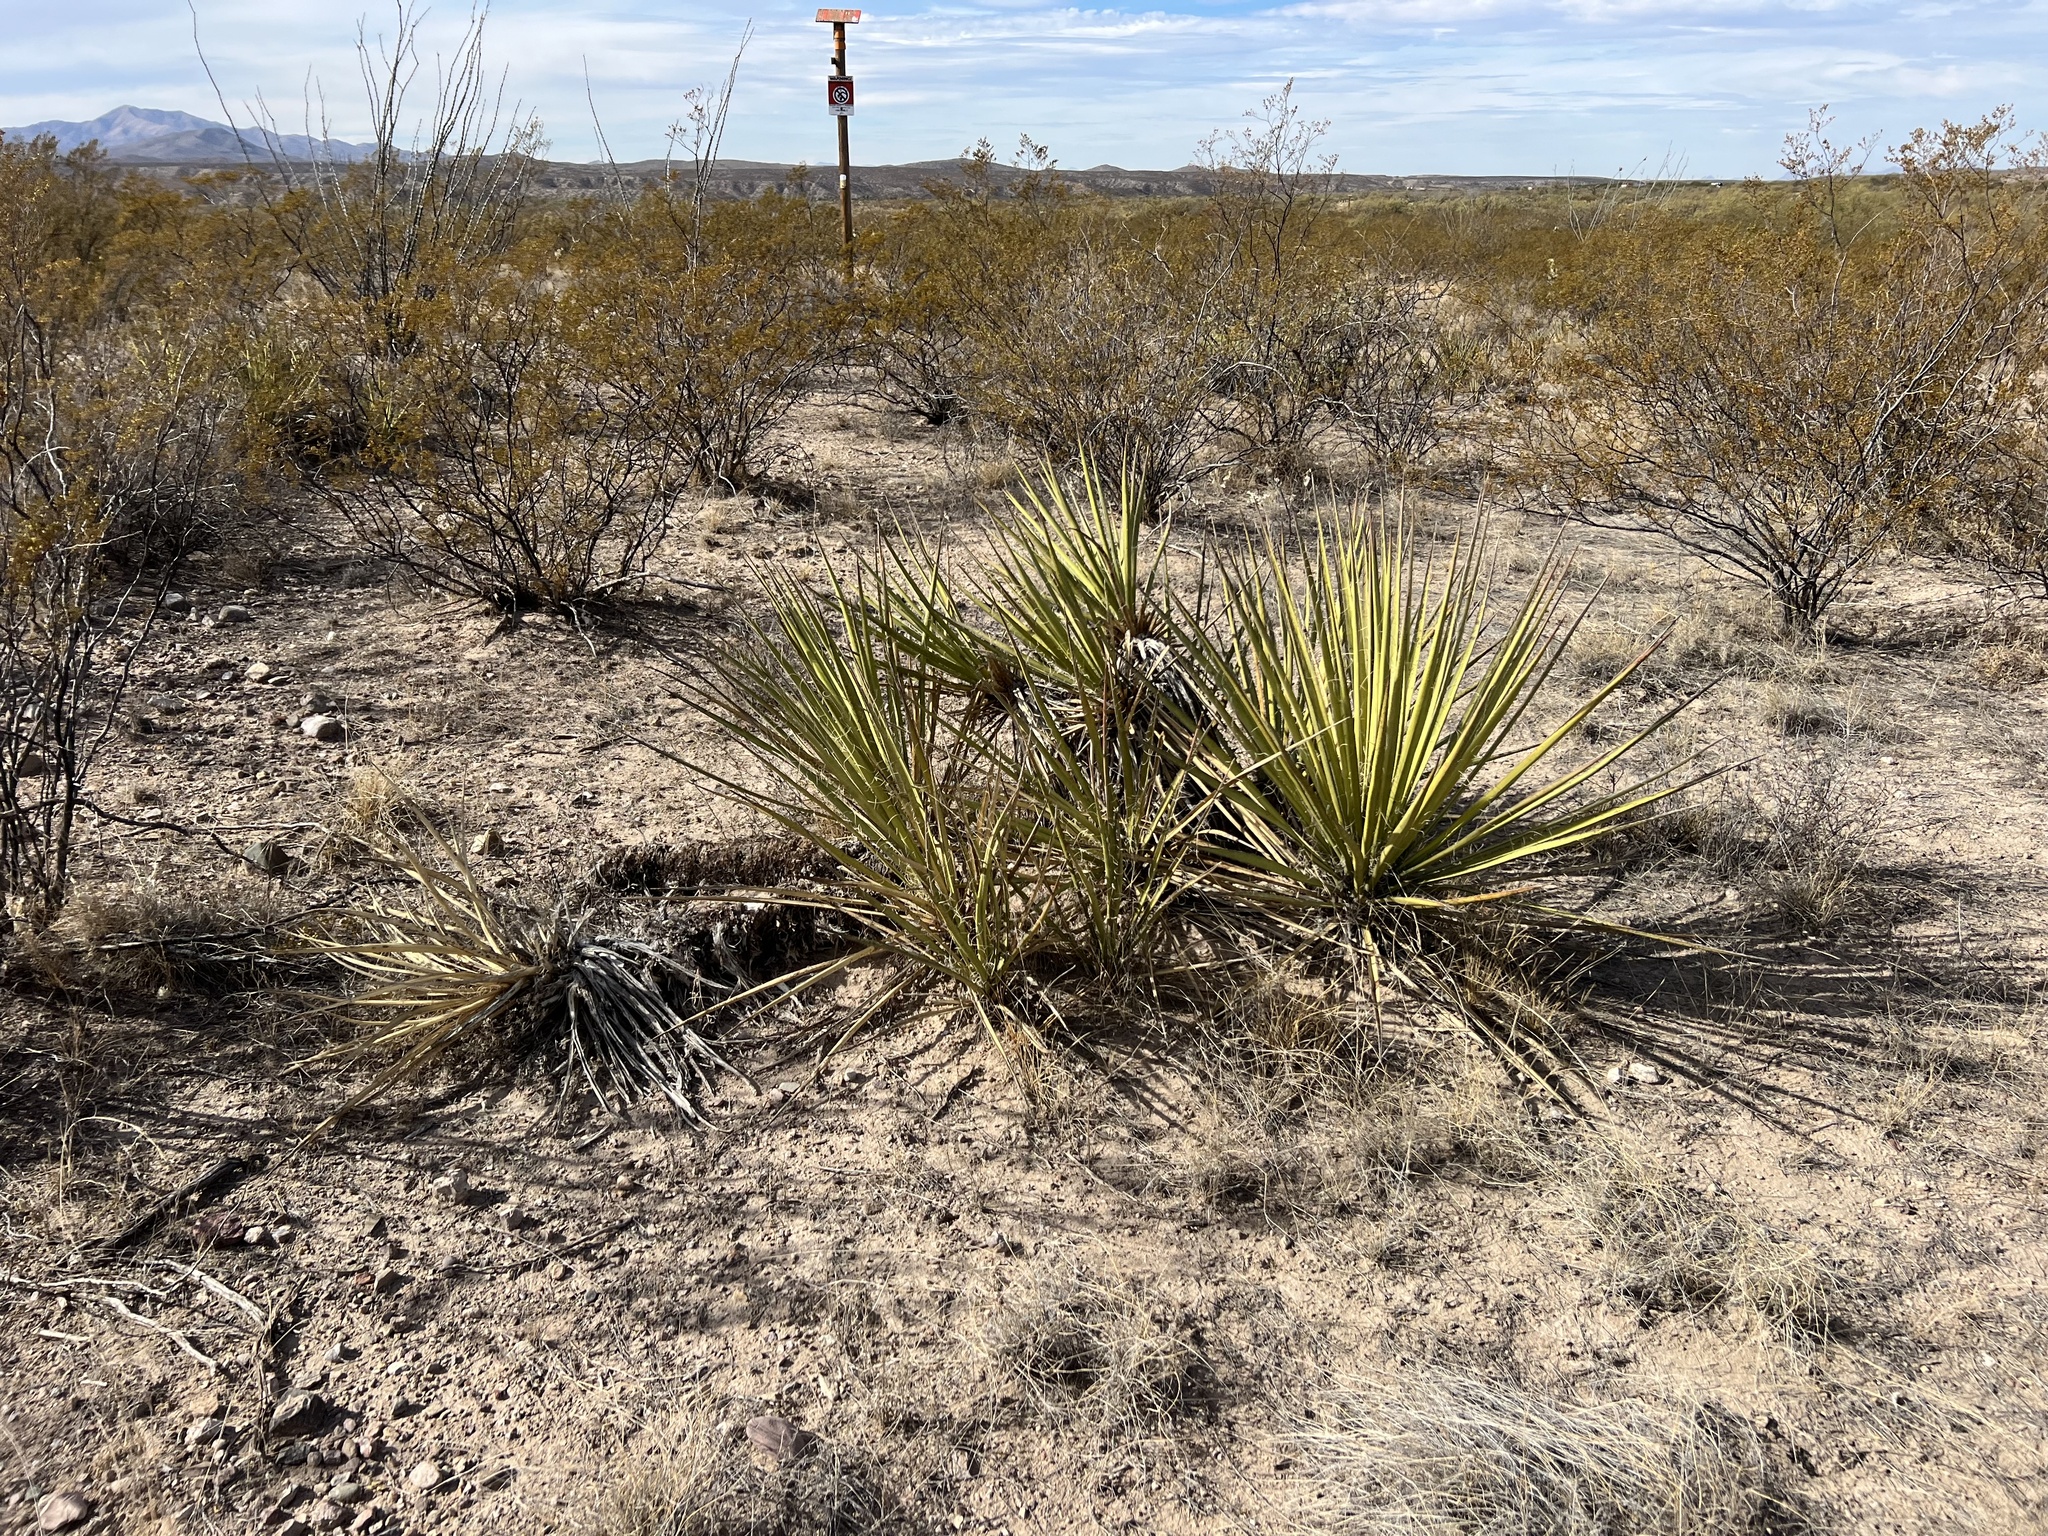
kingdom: Plantae
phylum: Tracheophyta
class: Liliopsida
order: Asparagales
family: Asparagaceae
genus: Yucca
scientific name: Yucca baccata
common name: Banana yucca
